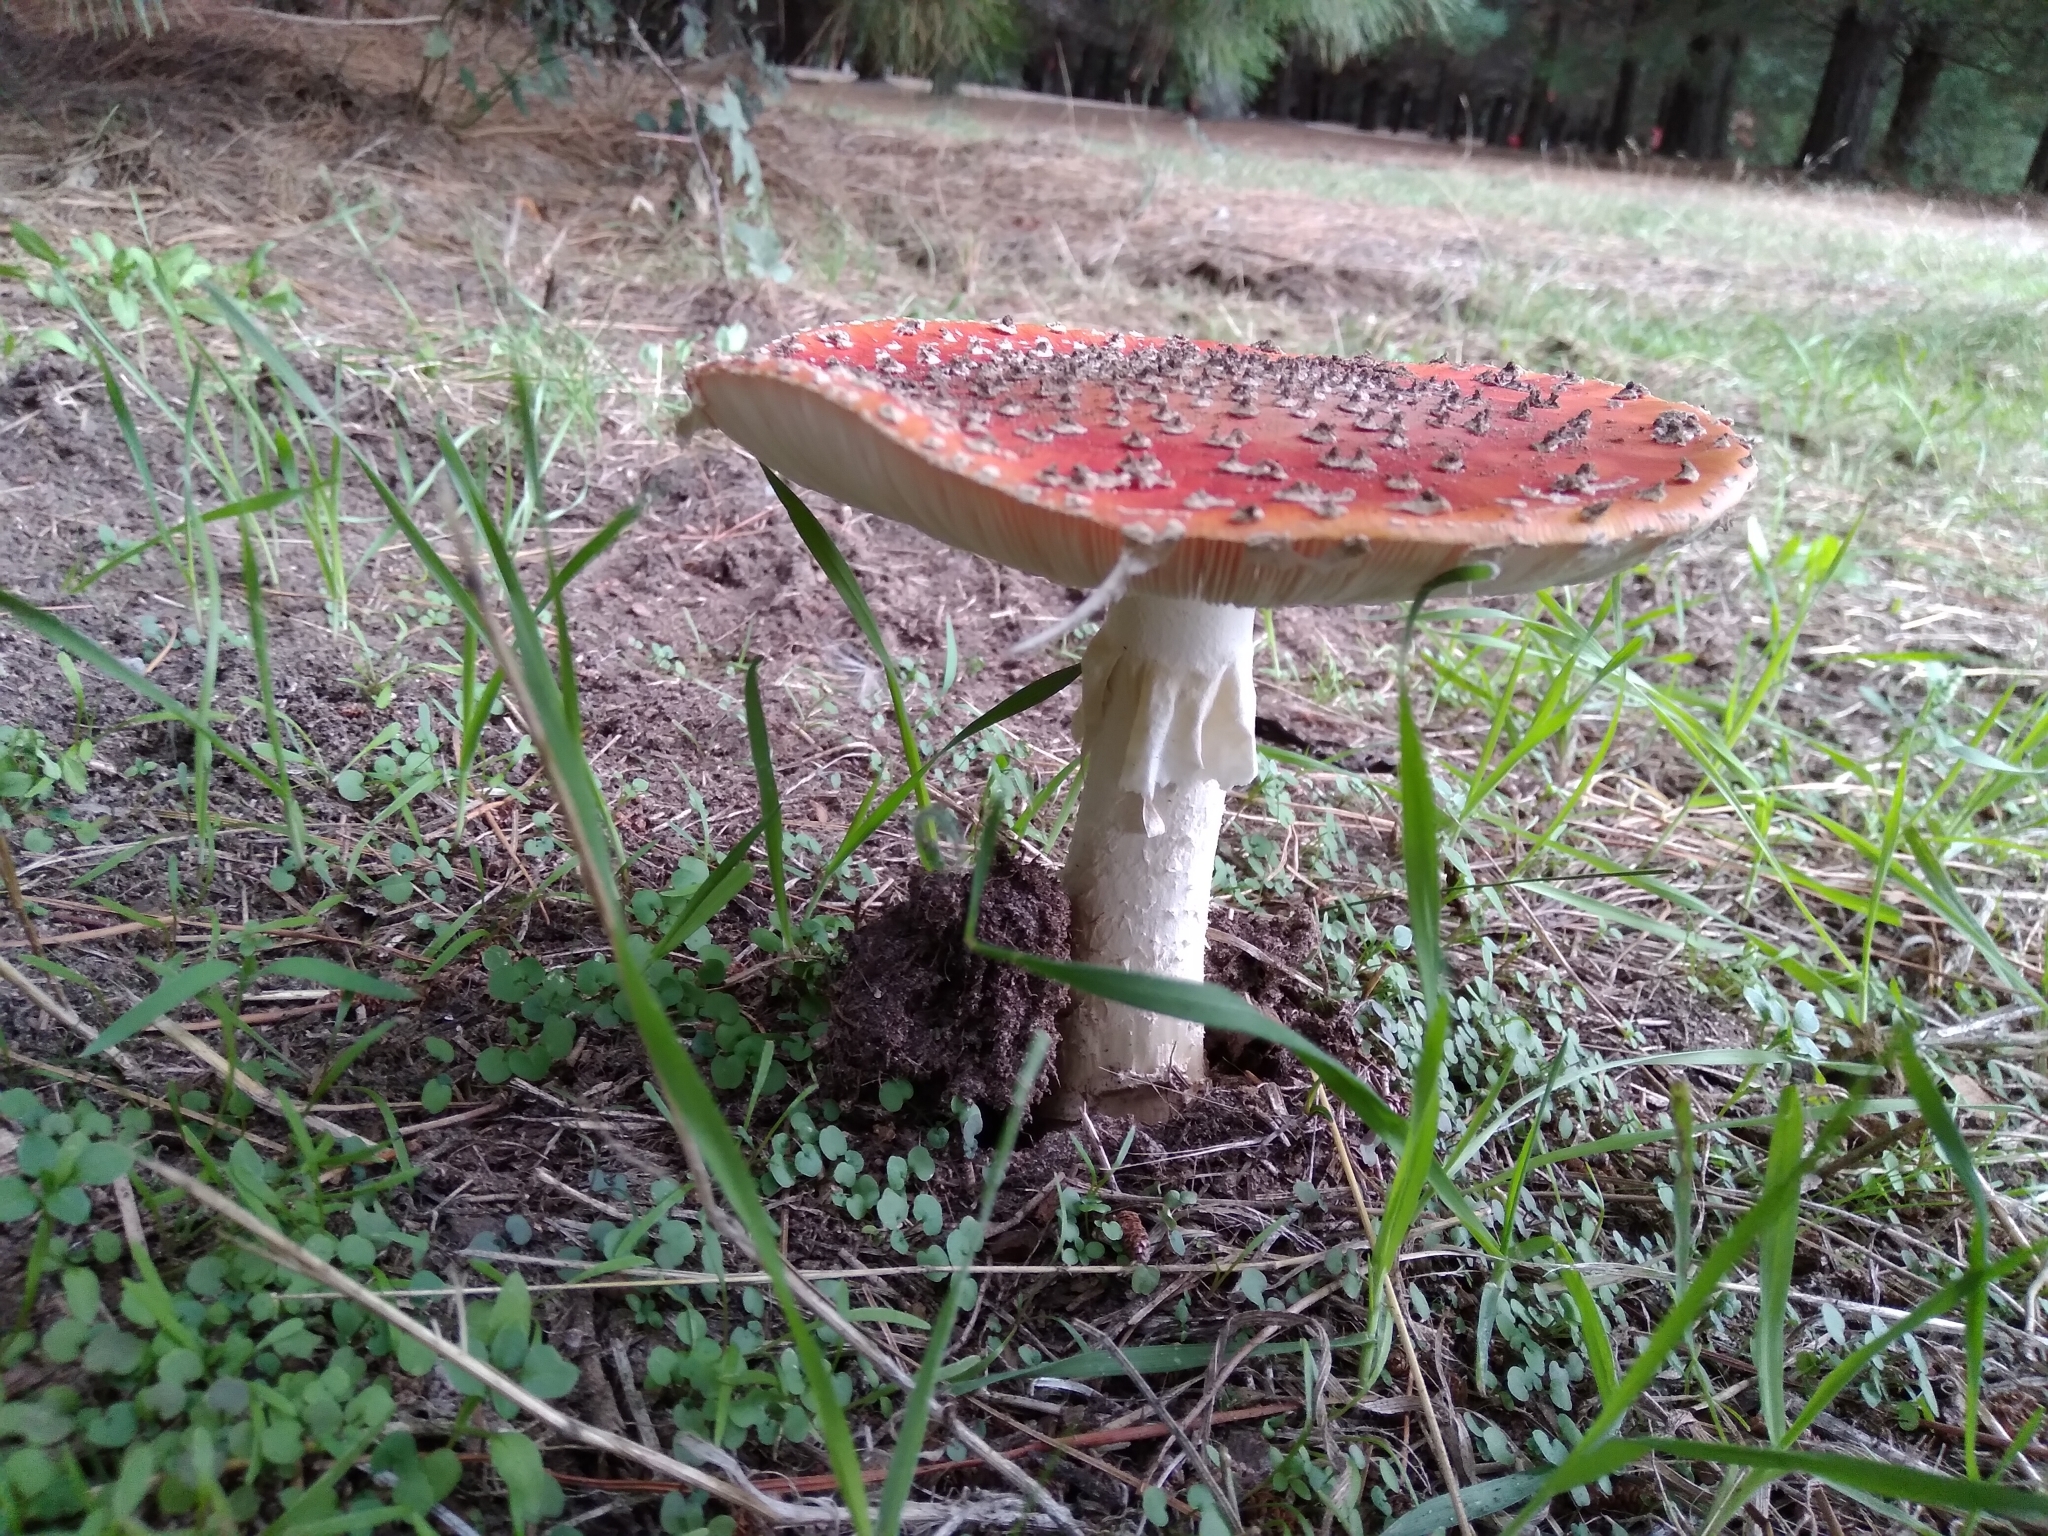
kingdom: Fungi
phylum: Basidiomycota
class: Agaricomycetes
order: Agaricales
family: Amanitaceae
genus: Amanita
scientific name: Amanita muscaria
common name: Fly agaric
